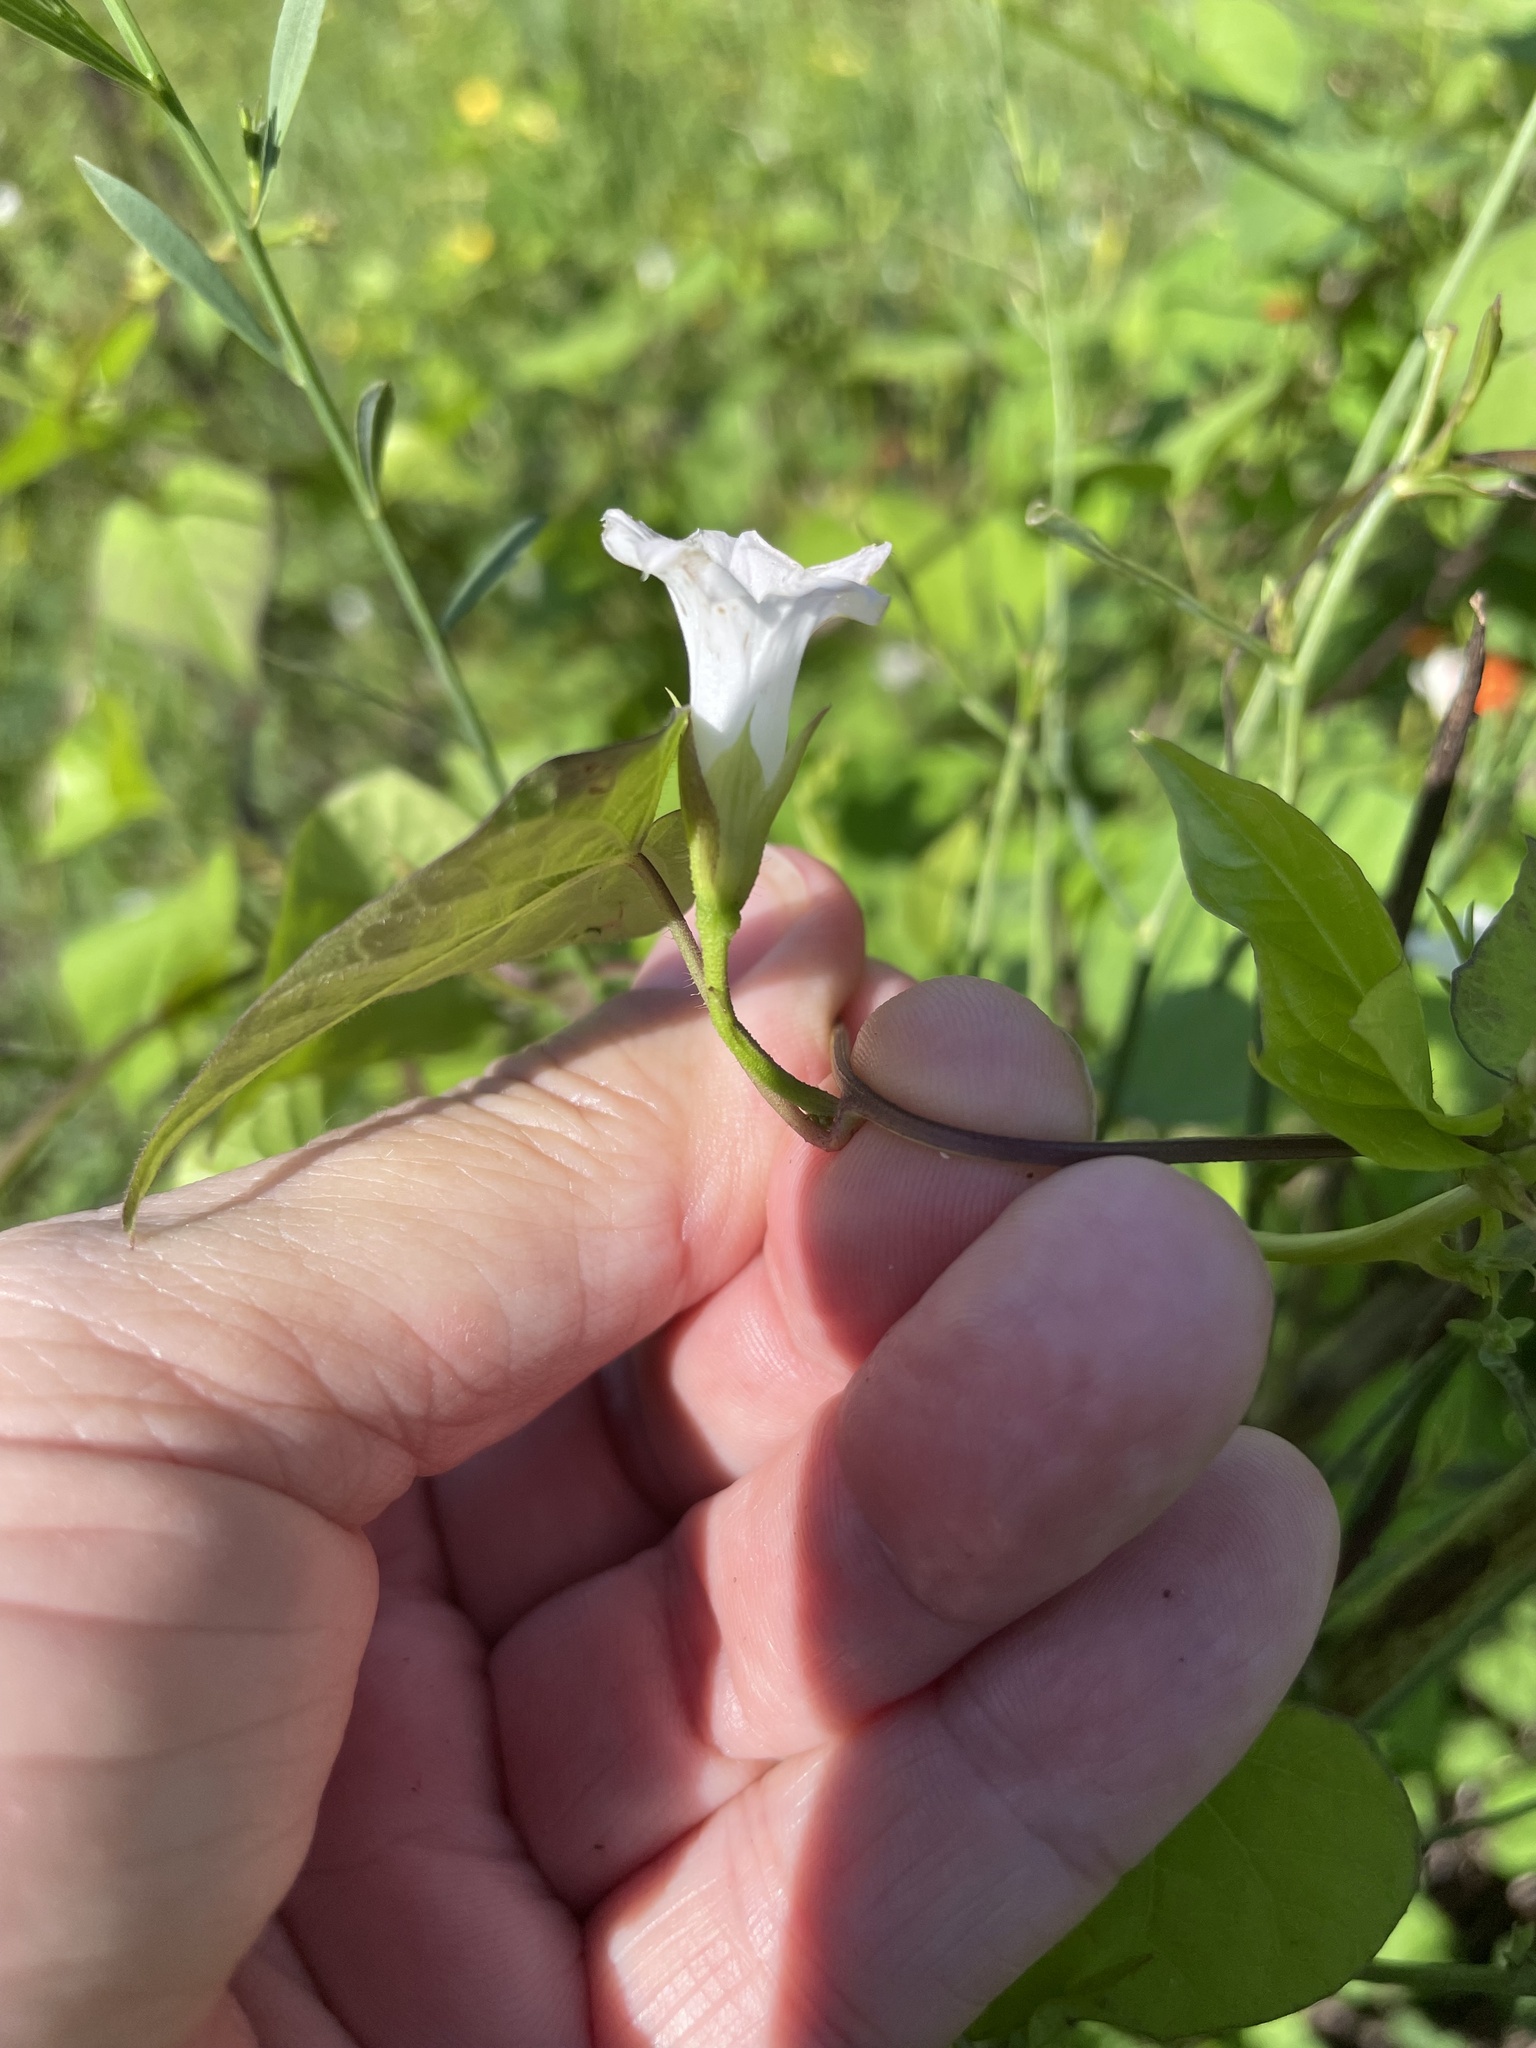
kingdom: Plantae
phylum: Tracheophyta
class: Magnoliopsida
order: Solanales
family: Convolvulaceae
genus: Ipomoea
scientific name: Ipomoea lacunosa
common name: White morning-glory
